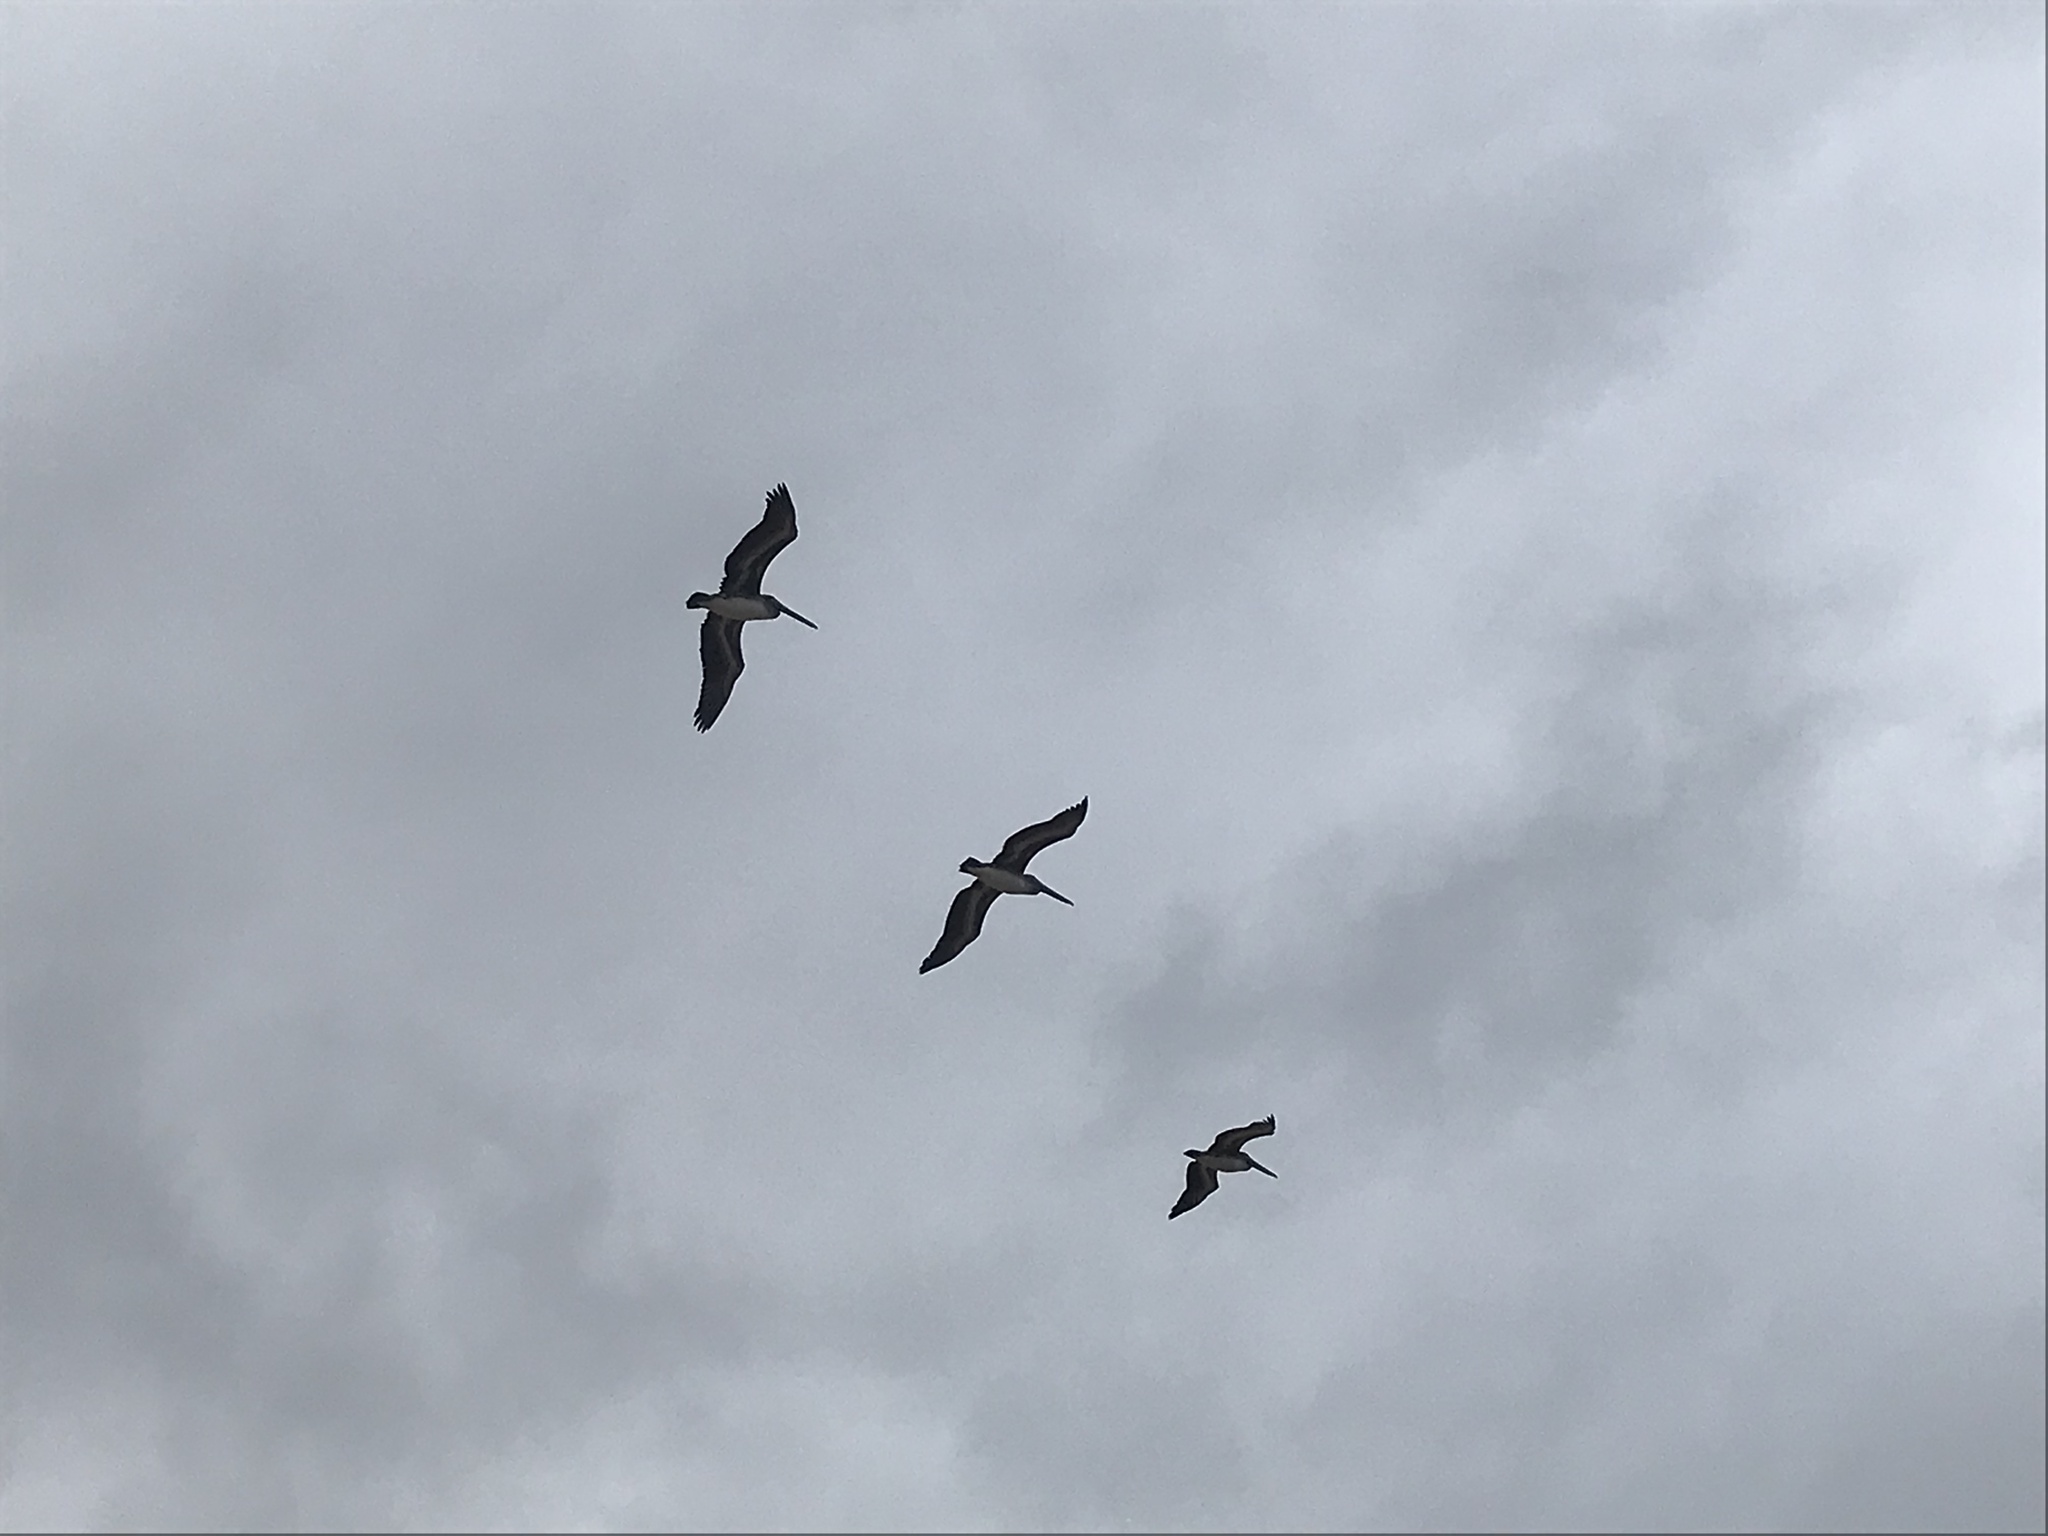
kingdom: Animalia
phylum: Chordata
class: Aves
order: Pelecaniformes
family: Pelecanidae
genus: Pelecanus
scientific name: Pelecanus occidentalis
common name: Brown pelican
